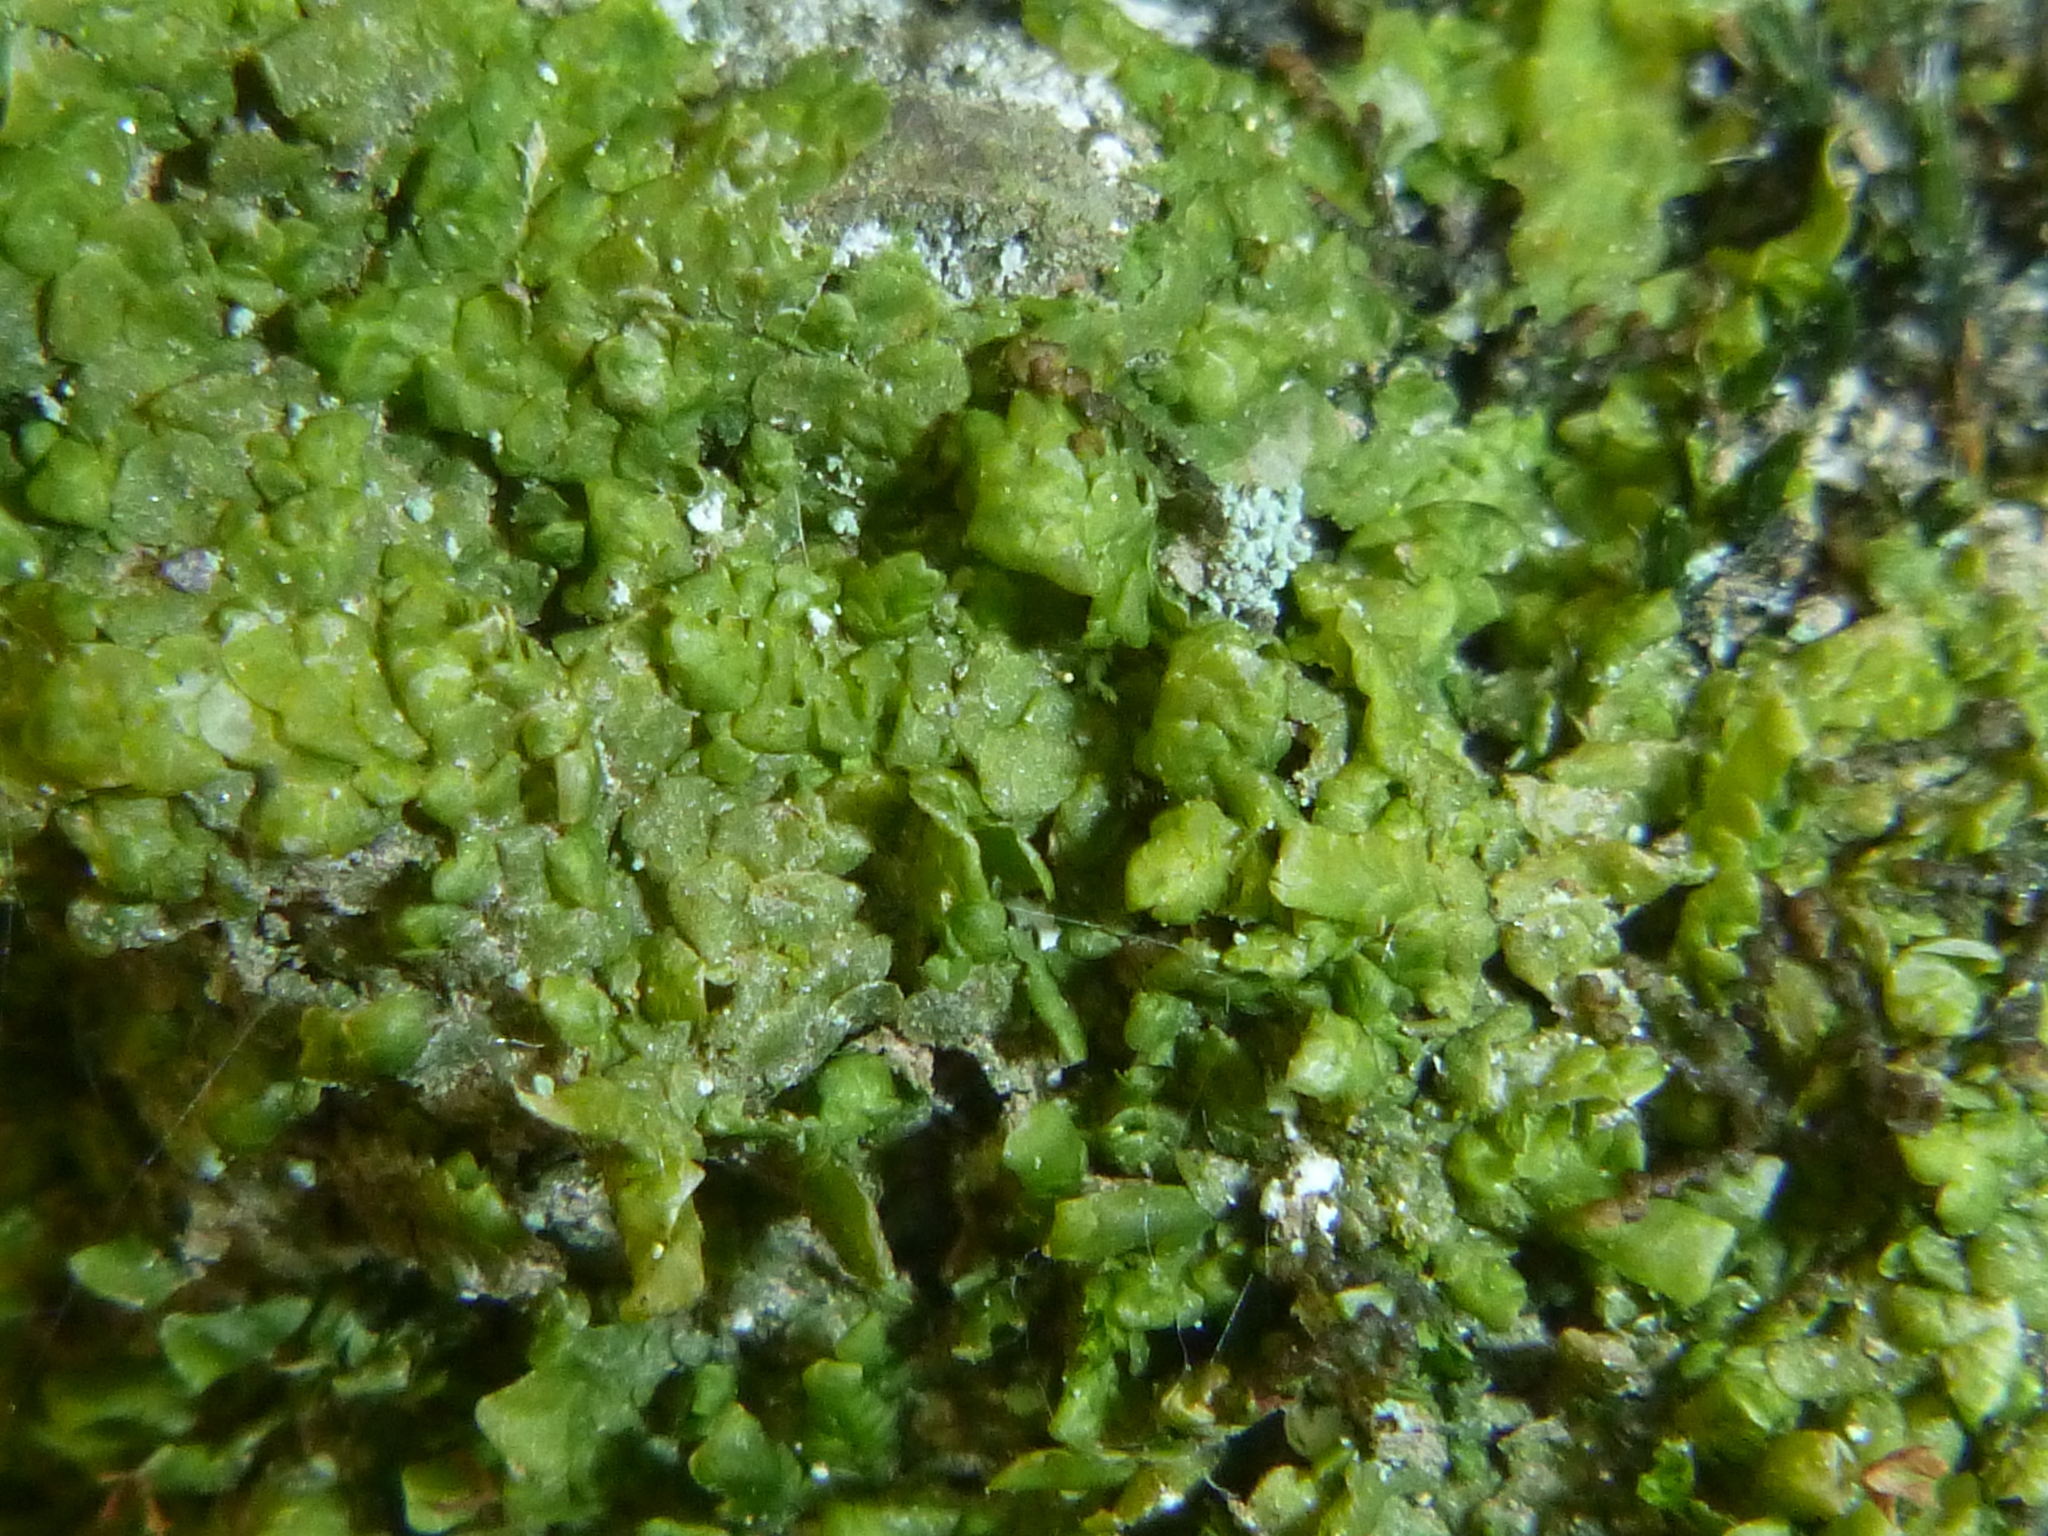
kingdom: Plantae
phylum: Marchantiophyta
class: Jungermanniopsida
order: Porellales
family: Radulaceae
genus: Radula
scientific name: Radula complanata
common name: Flat-leaved scalewort
